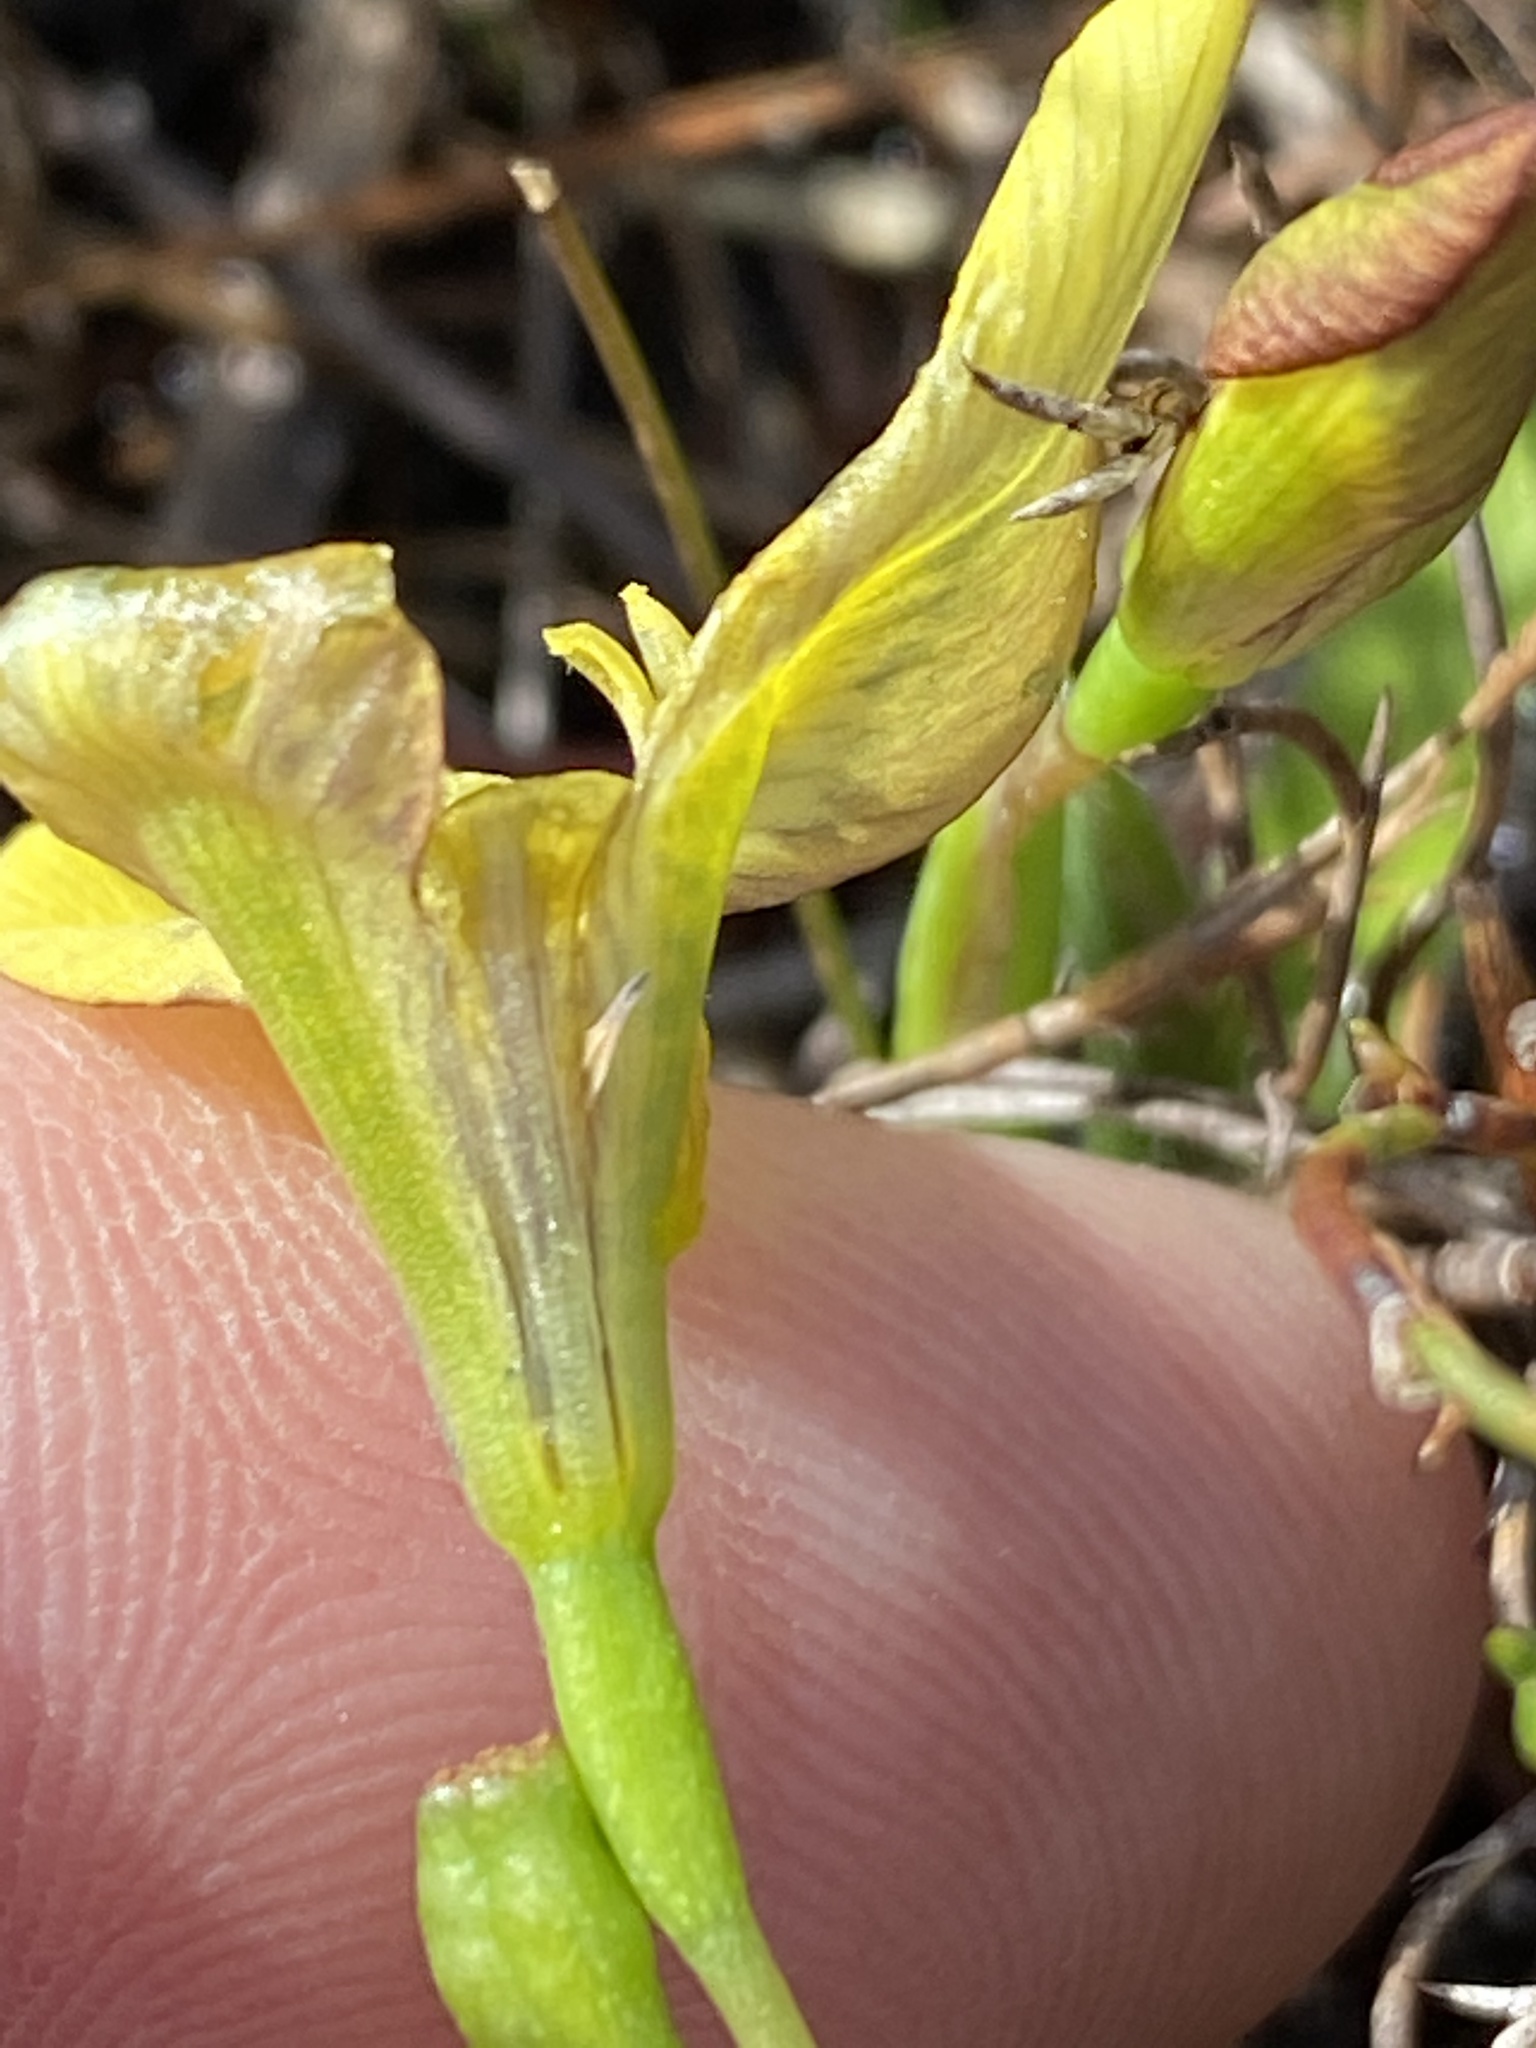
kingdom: Plantae
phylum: Tracheophyta
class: Liliopsida
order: Asparagales
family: Iridaceae
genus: Moraea
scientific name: Moraea papilionacea
